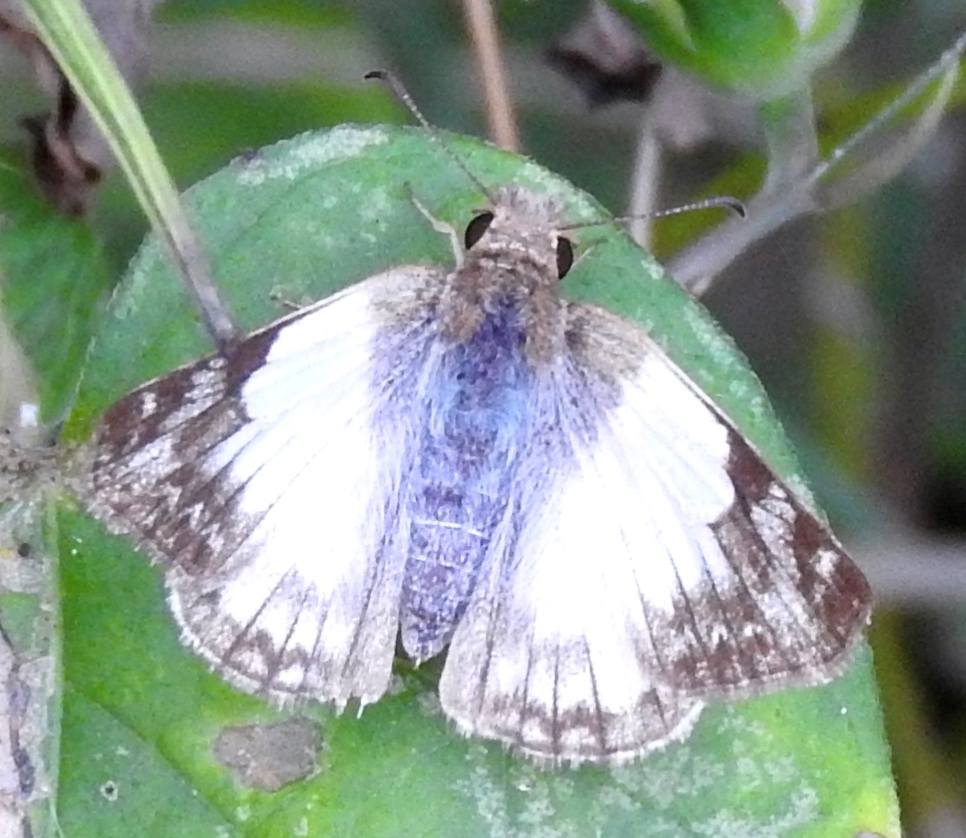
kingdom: Animalia
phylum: Arthropoda
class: Insecta
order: Lepidoptera
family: Hesperiidae
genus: Heliopetes
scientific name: Heliopetes laviana
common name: Laviana white-skipper
